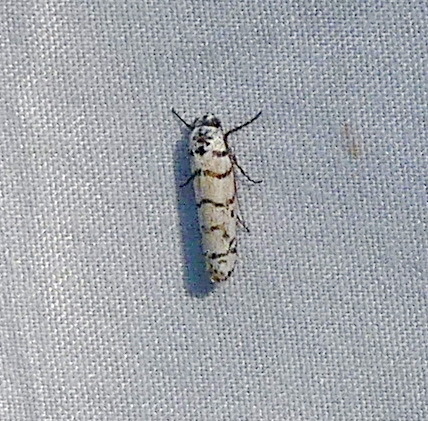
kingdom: Animalia
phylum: Arthropoda
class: Insecta
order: Lepidoptera
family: Ethmiidae
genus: Ethmia
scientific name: Ethmia delliella
